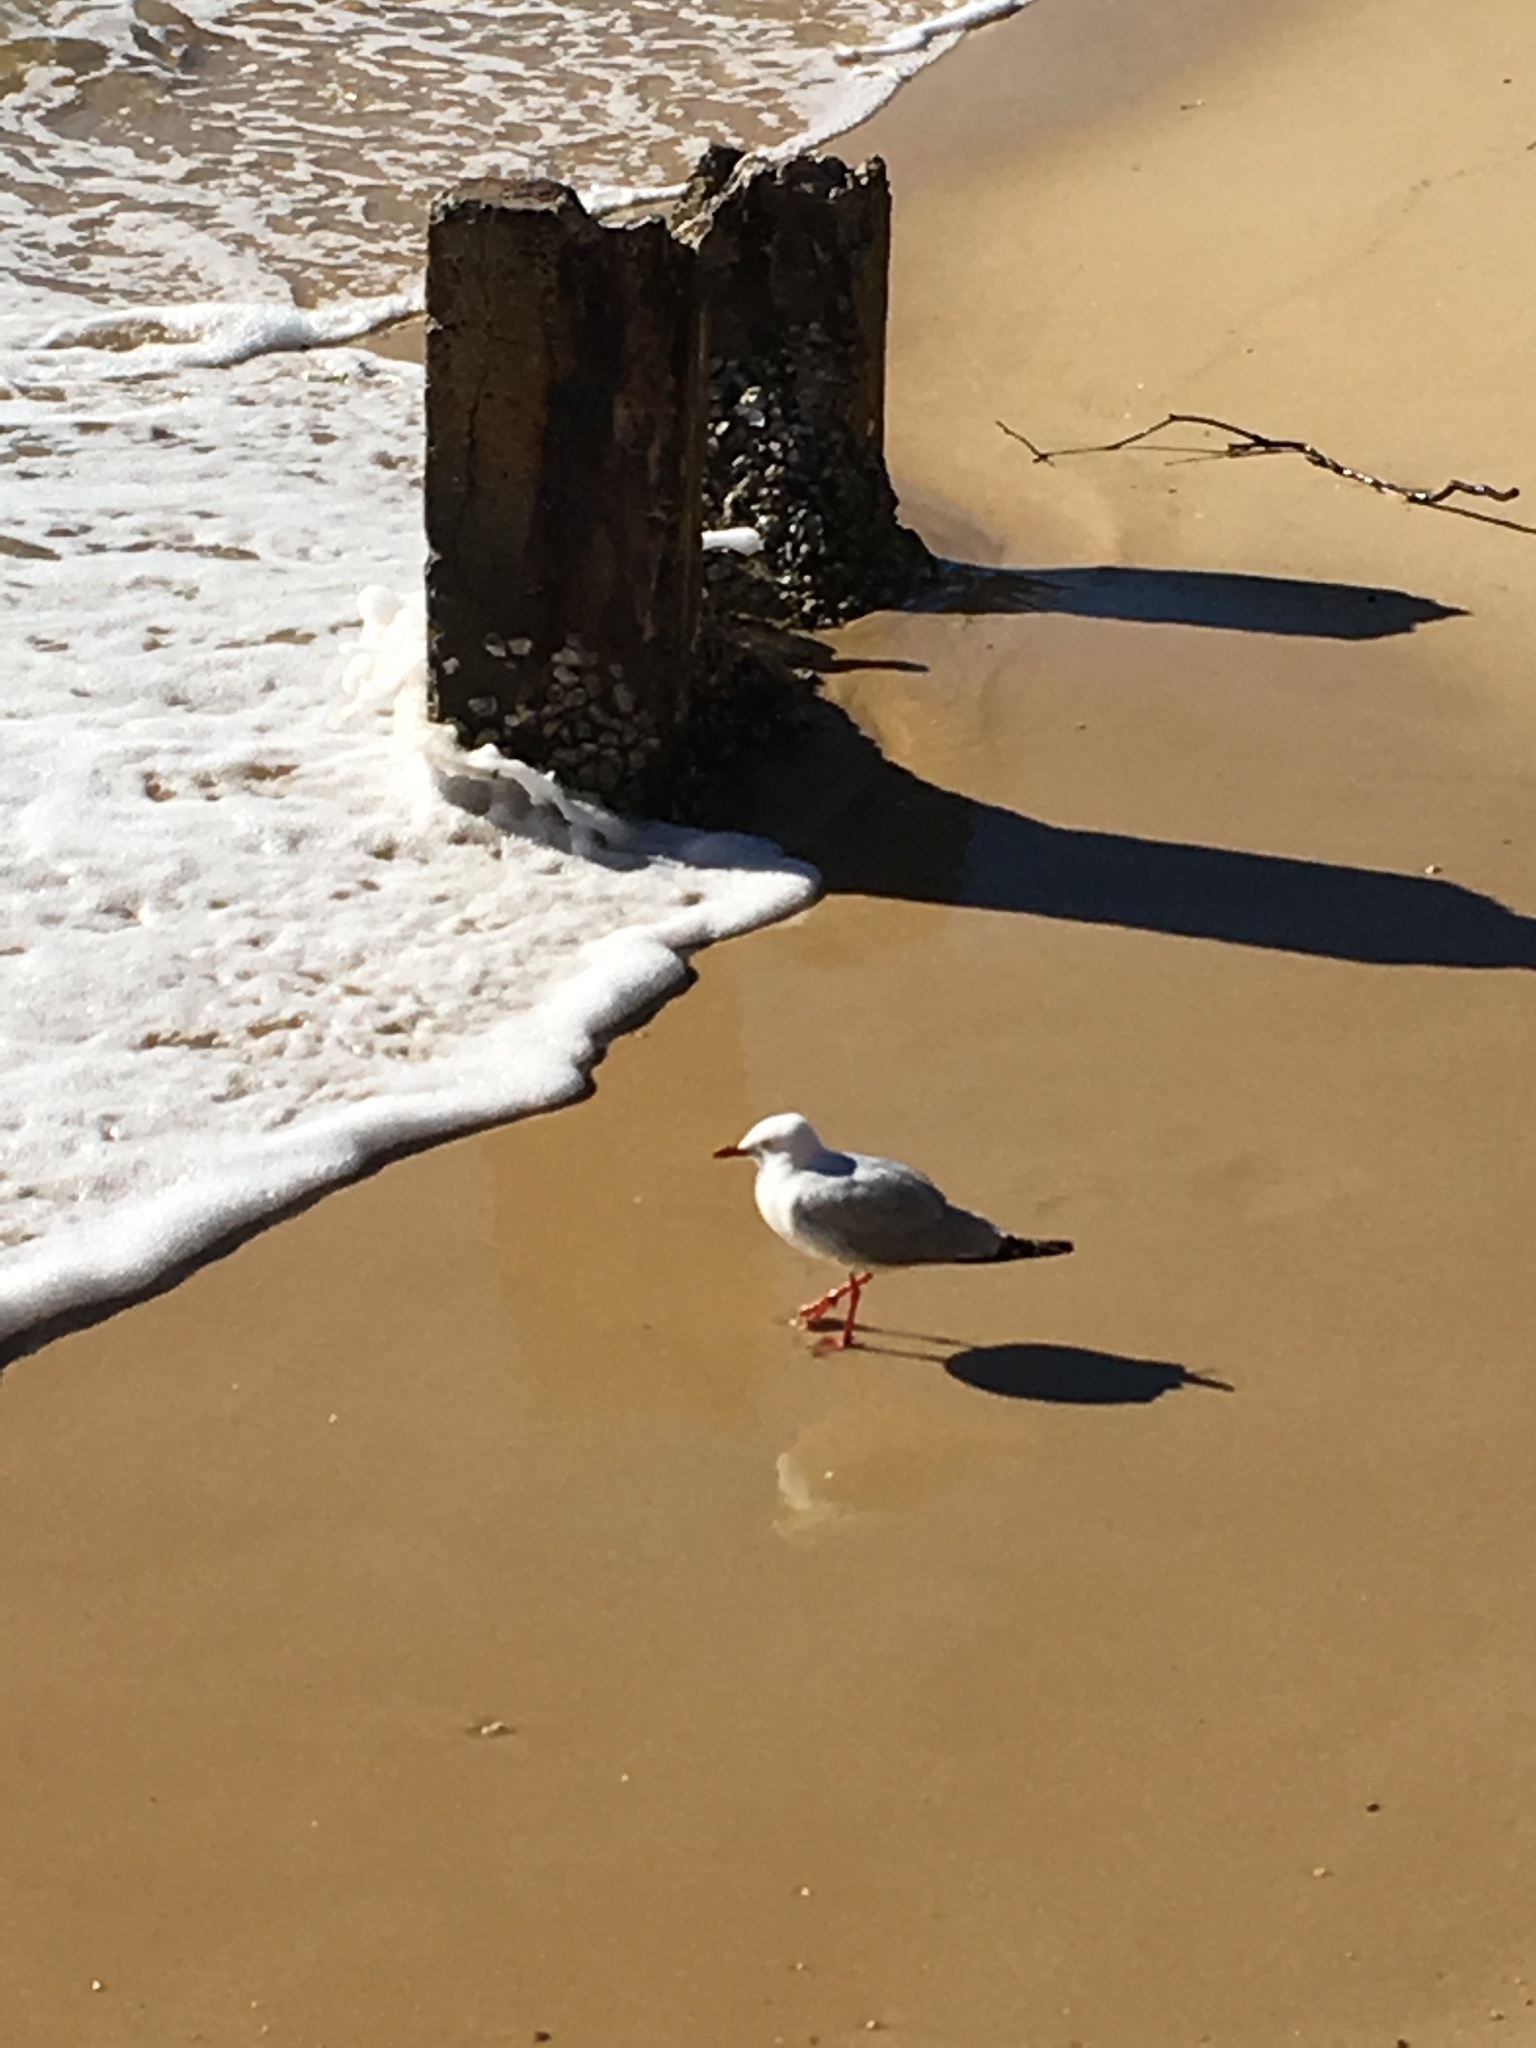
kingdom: Animalia
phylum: Chordata
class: Aves
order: Charadriiformes
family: Laridae
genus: Chroicocephalus
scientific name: Chroicocephalus novaehollandiae
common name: Silver gull
